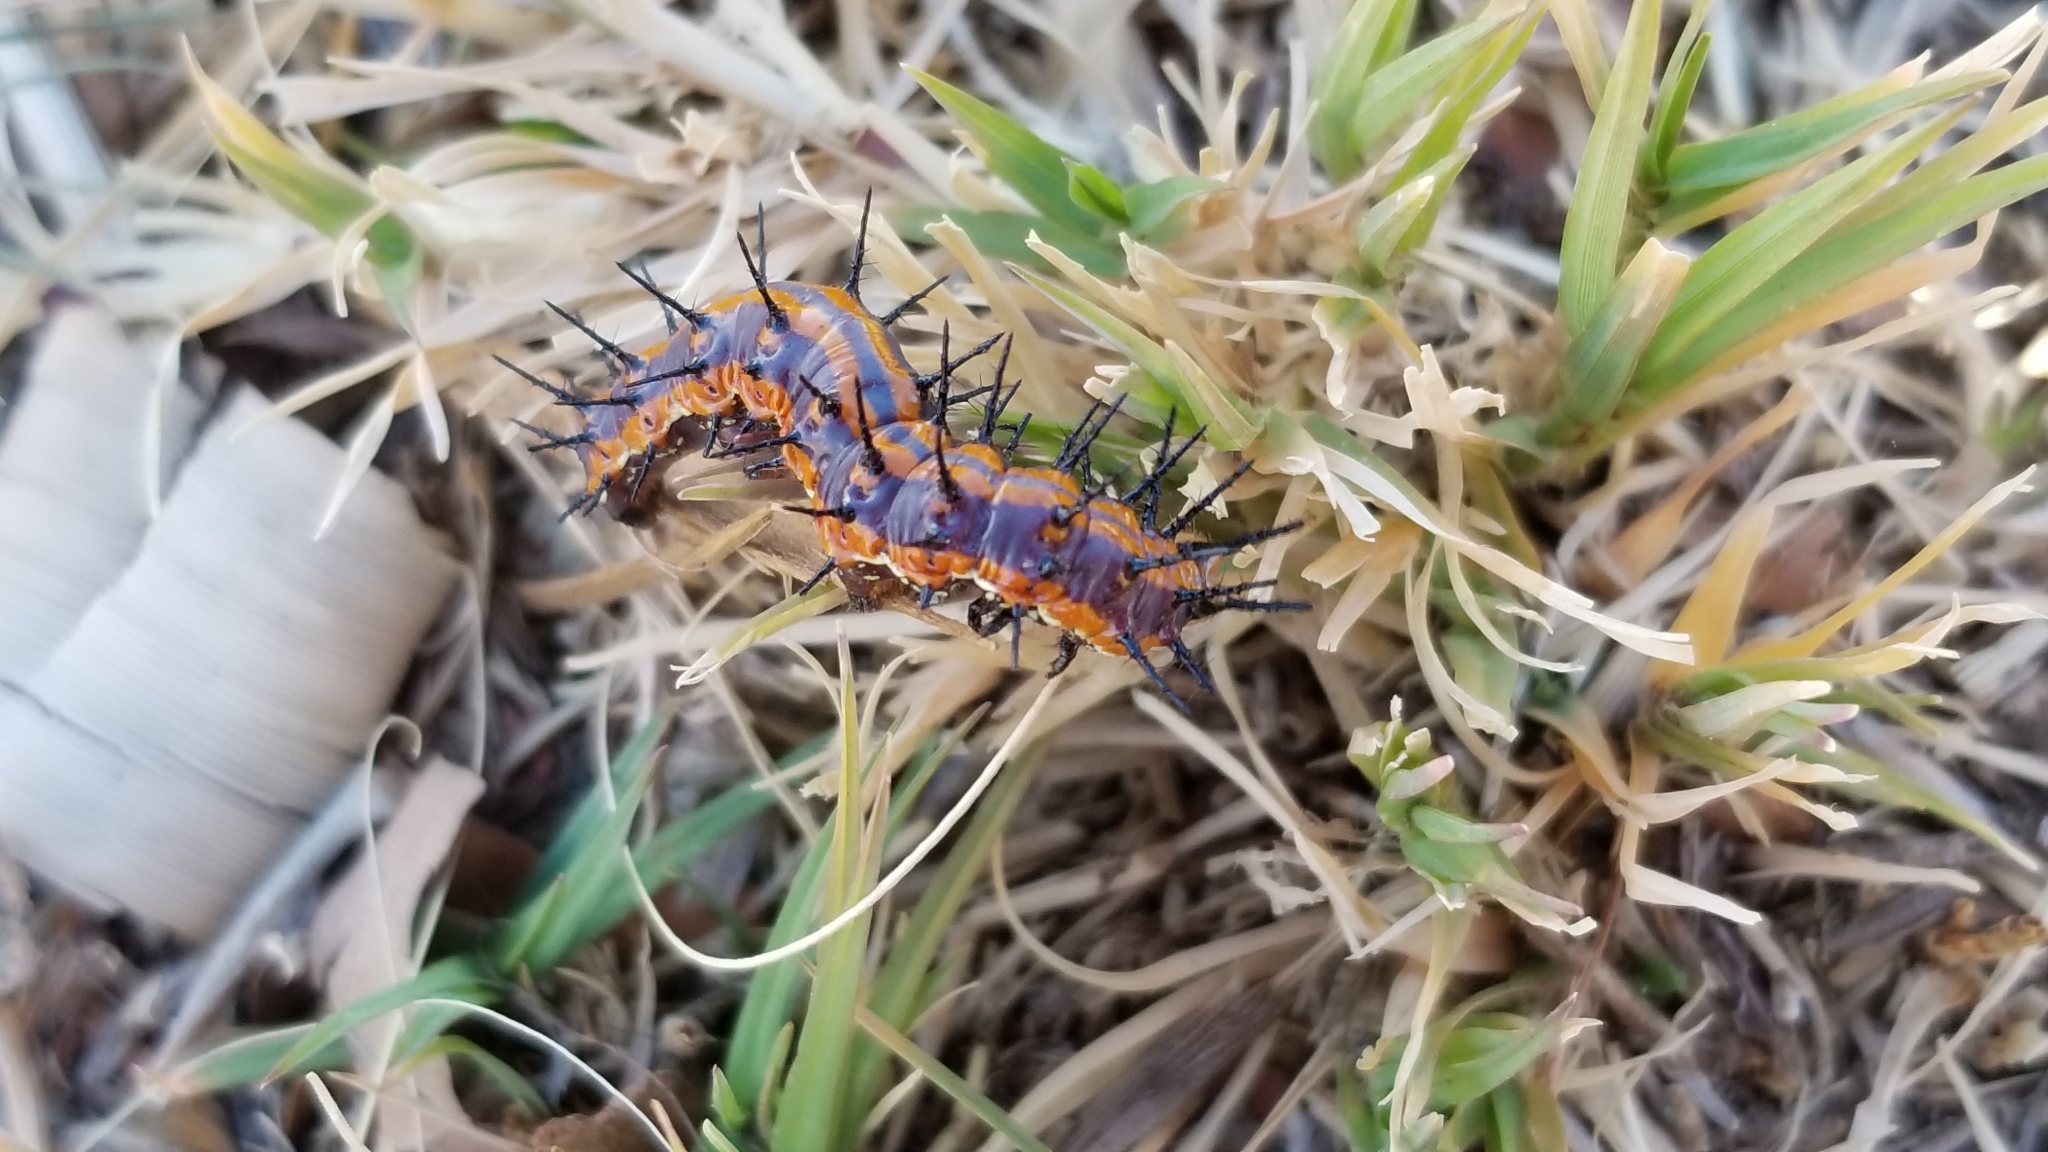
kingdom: Animalia
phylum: Arthropoda
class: Insecta
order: Lepidoptera
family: Nymphalidae
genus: Dione
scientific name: Dione vanillae
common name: Gulf fritillary
